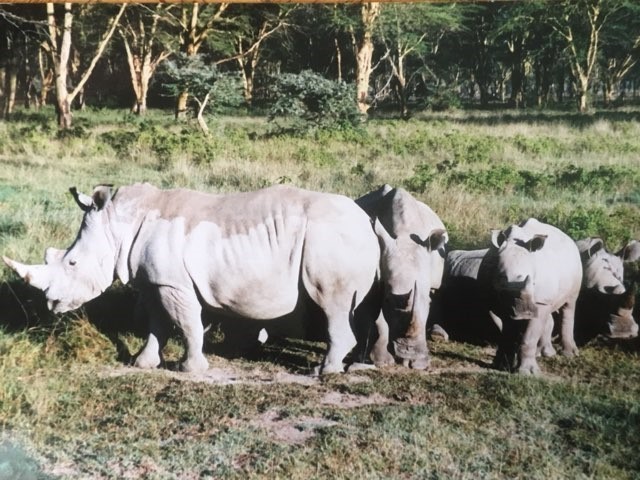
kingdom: Animalia
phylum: Chordata
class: Mammalia
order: Perissodactyla
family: Rhinocerotidae
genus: Ceratotherium
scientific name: Ceratotherium simum
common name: White rhinoceros
